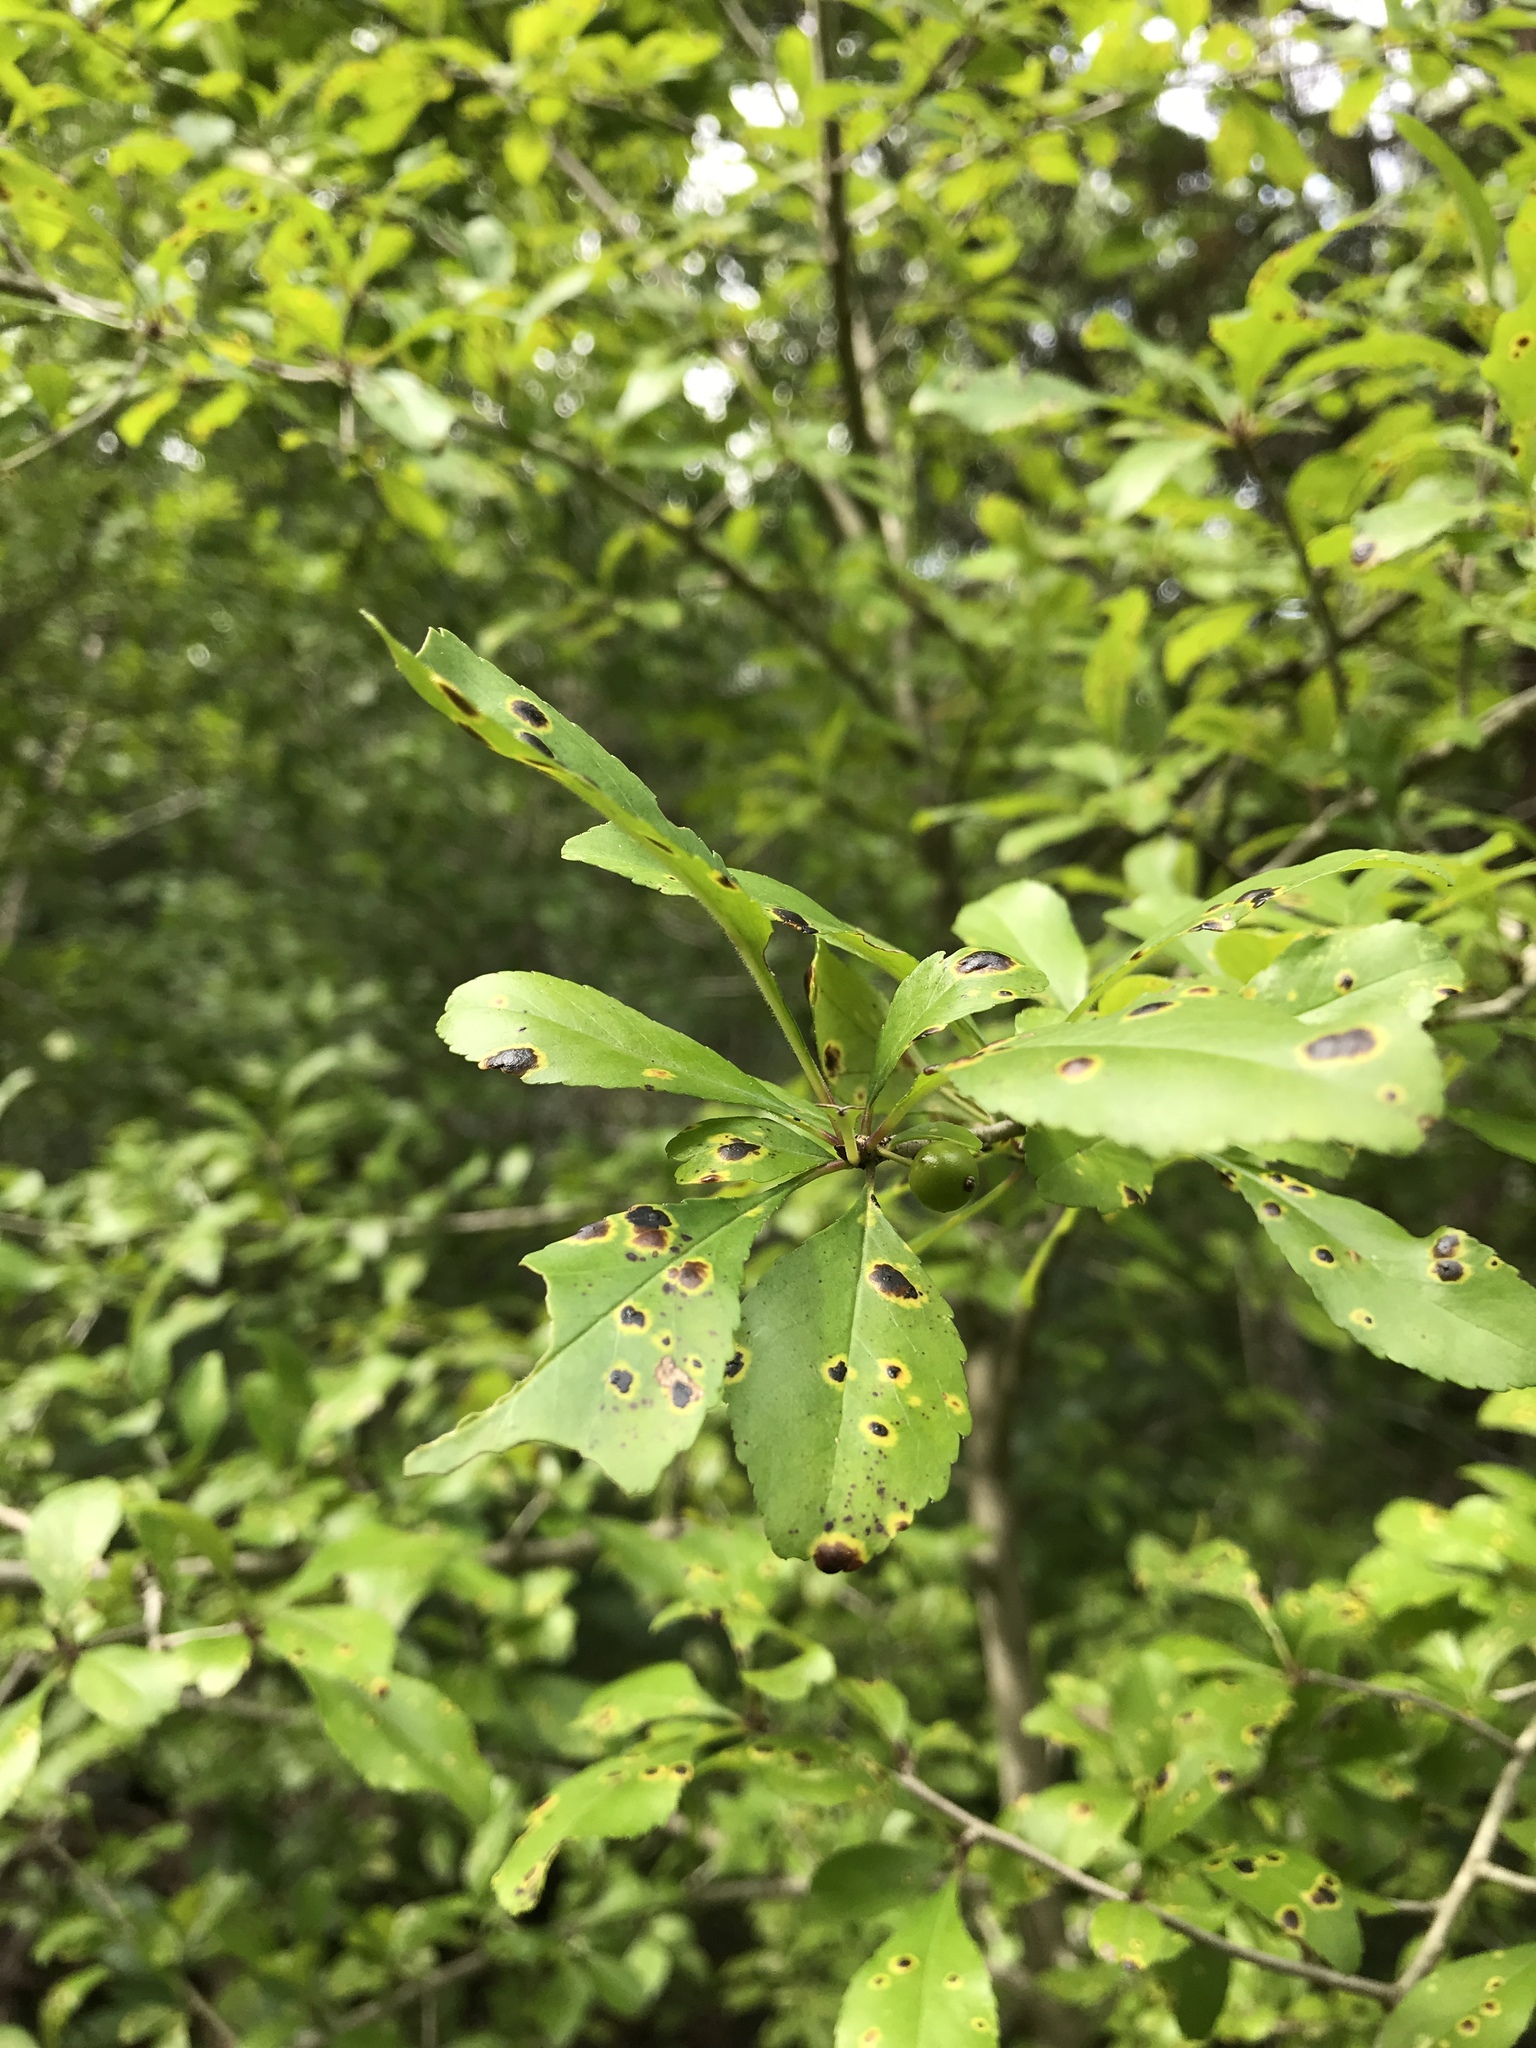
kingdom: Plantae
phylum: Tracheophyta
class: Magnoliopsida
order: Aquifoliales
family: Aquifoliaceae
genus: Ilex
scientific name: Ilex decidua
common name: Possum-haw
